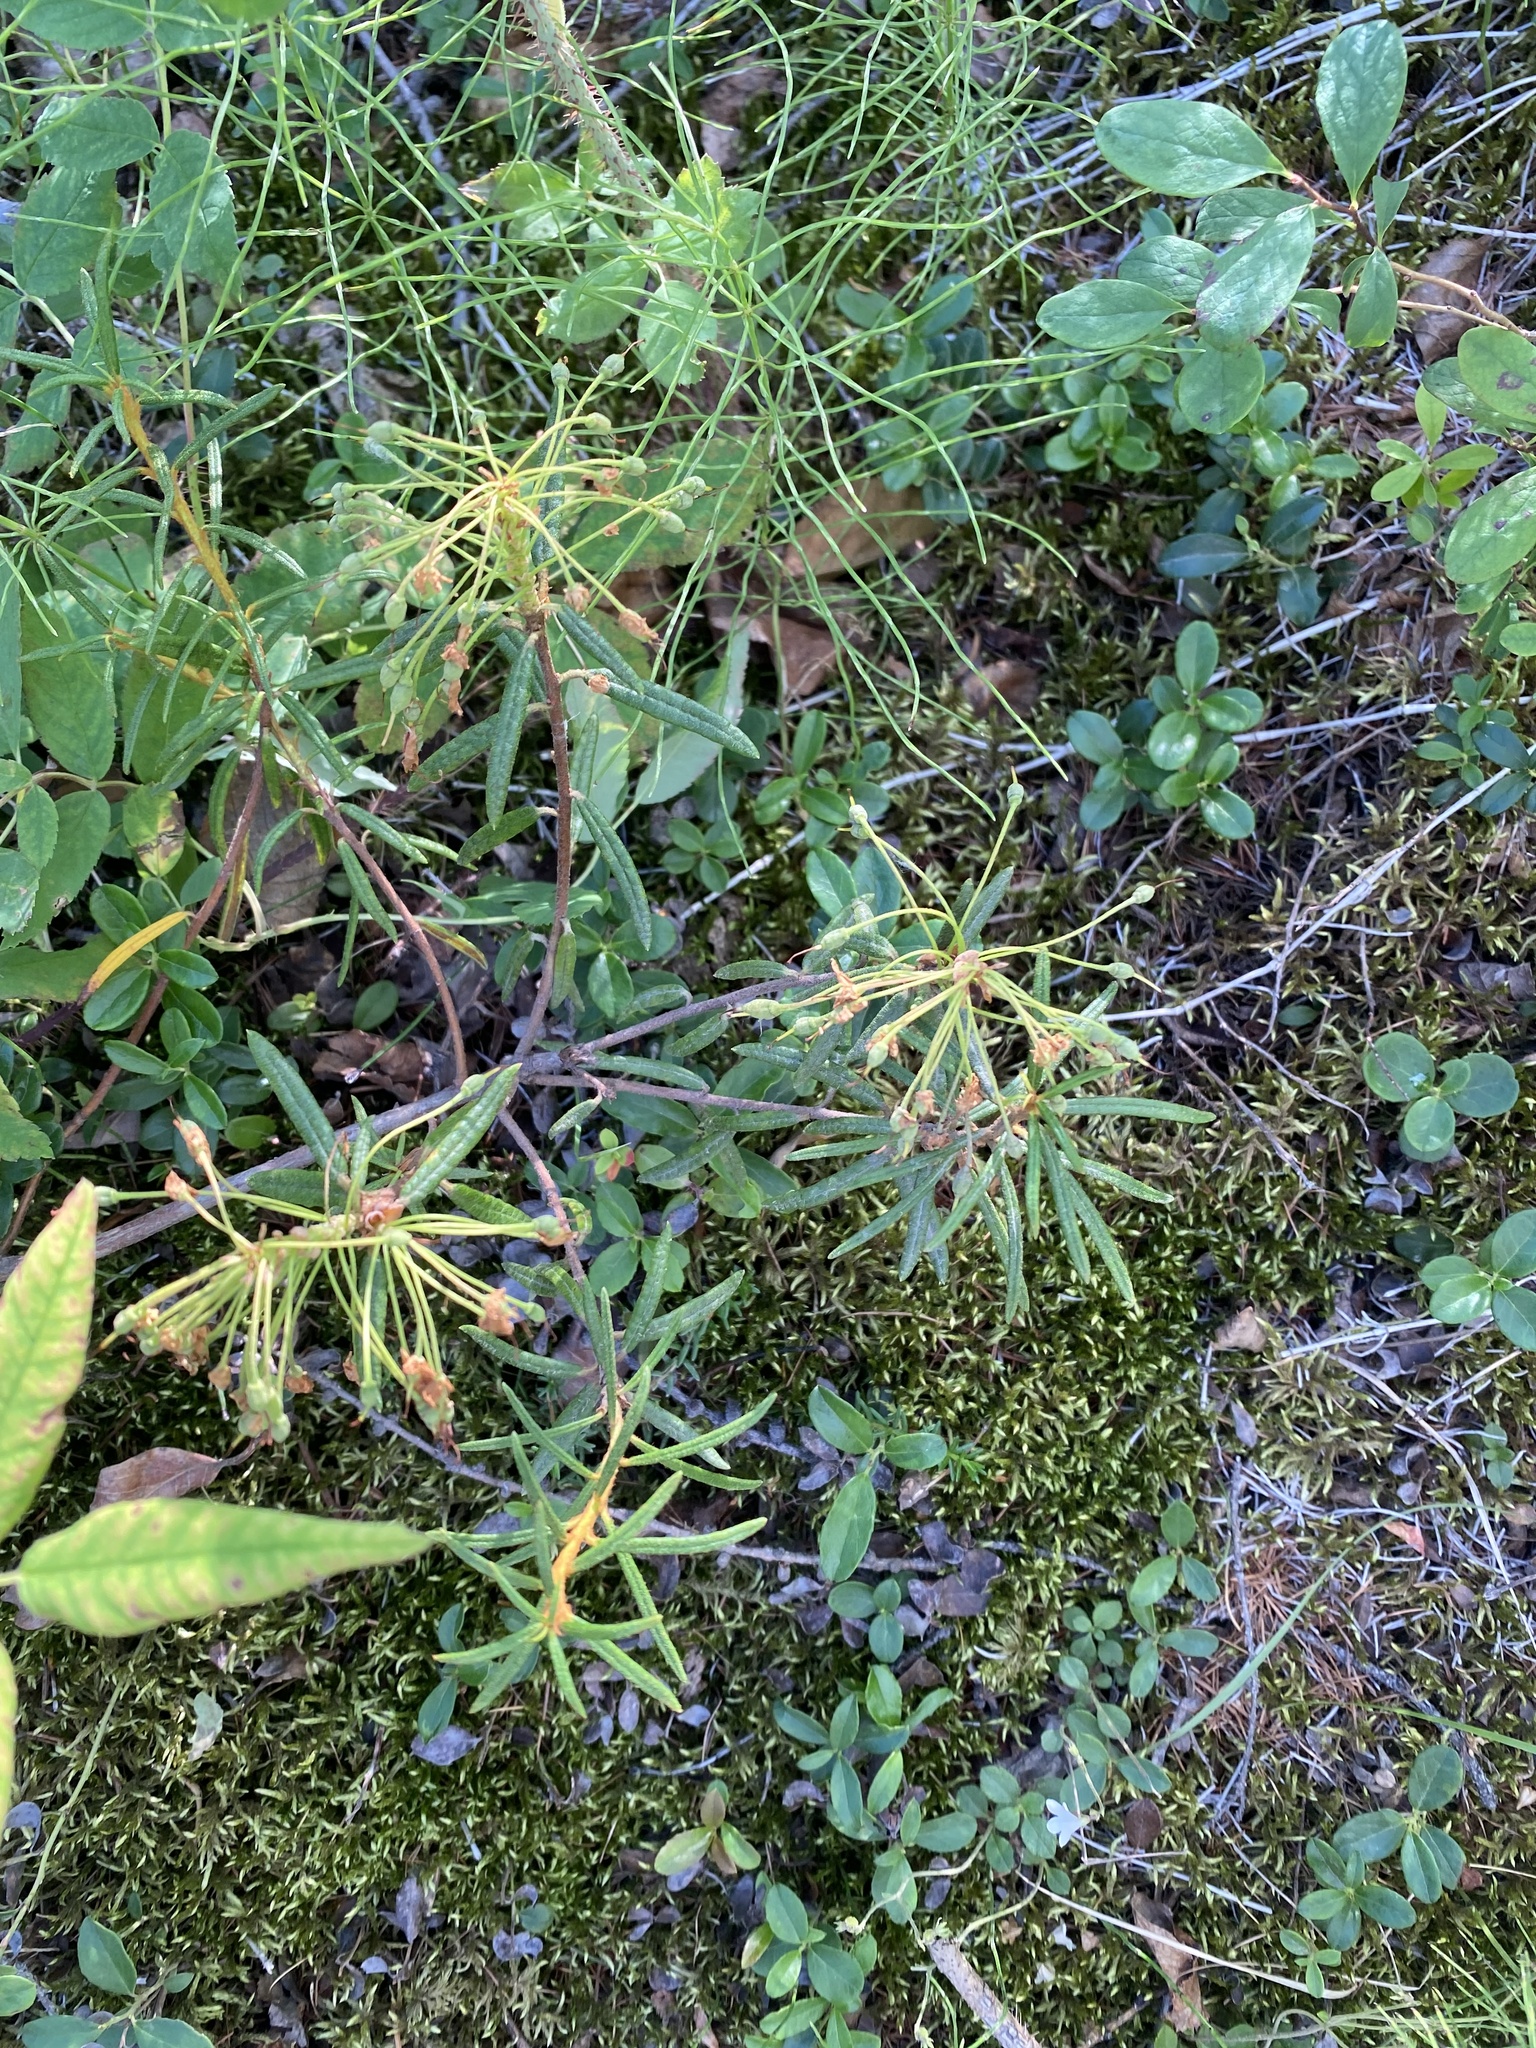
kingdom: Plantae
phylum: Tracheophyta
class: Magnoliopsida
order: Ericales
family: Ericaceae
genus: Rhododendron
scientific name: Rhododendron tomentosum
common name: Marsh labrador tea
